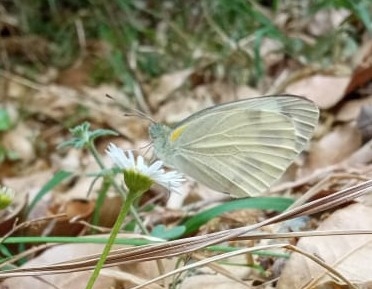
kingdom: Animalia
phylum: Arthropoda
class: Insecta
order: Lepidoptera
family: Pieridae
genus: Pieris
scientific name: Pieris canidia
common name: Indian cabbage white
